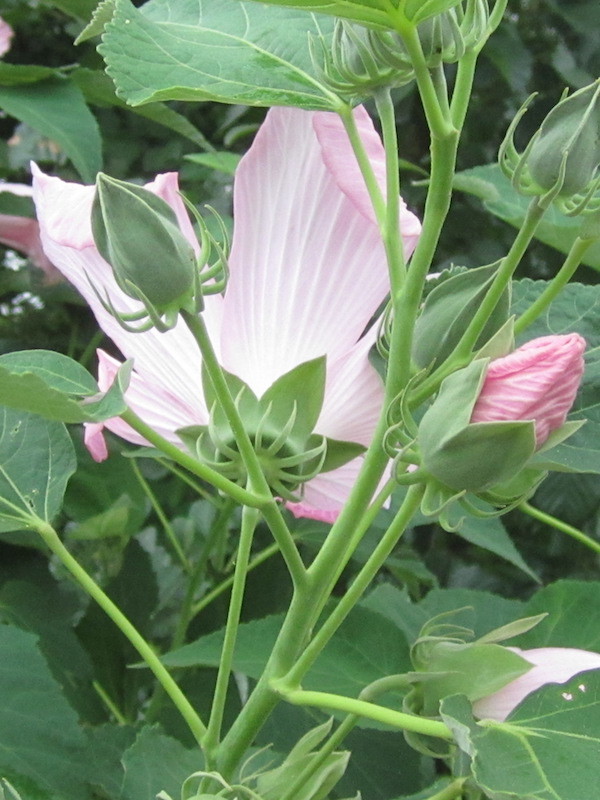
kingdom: Plantae
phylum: Tracheophyta
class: Magnoliopsida
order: Malvales
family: Malvaceae
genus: Hibiscus
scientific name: Hibiscus moscheutos
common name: Common rose-mallow
